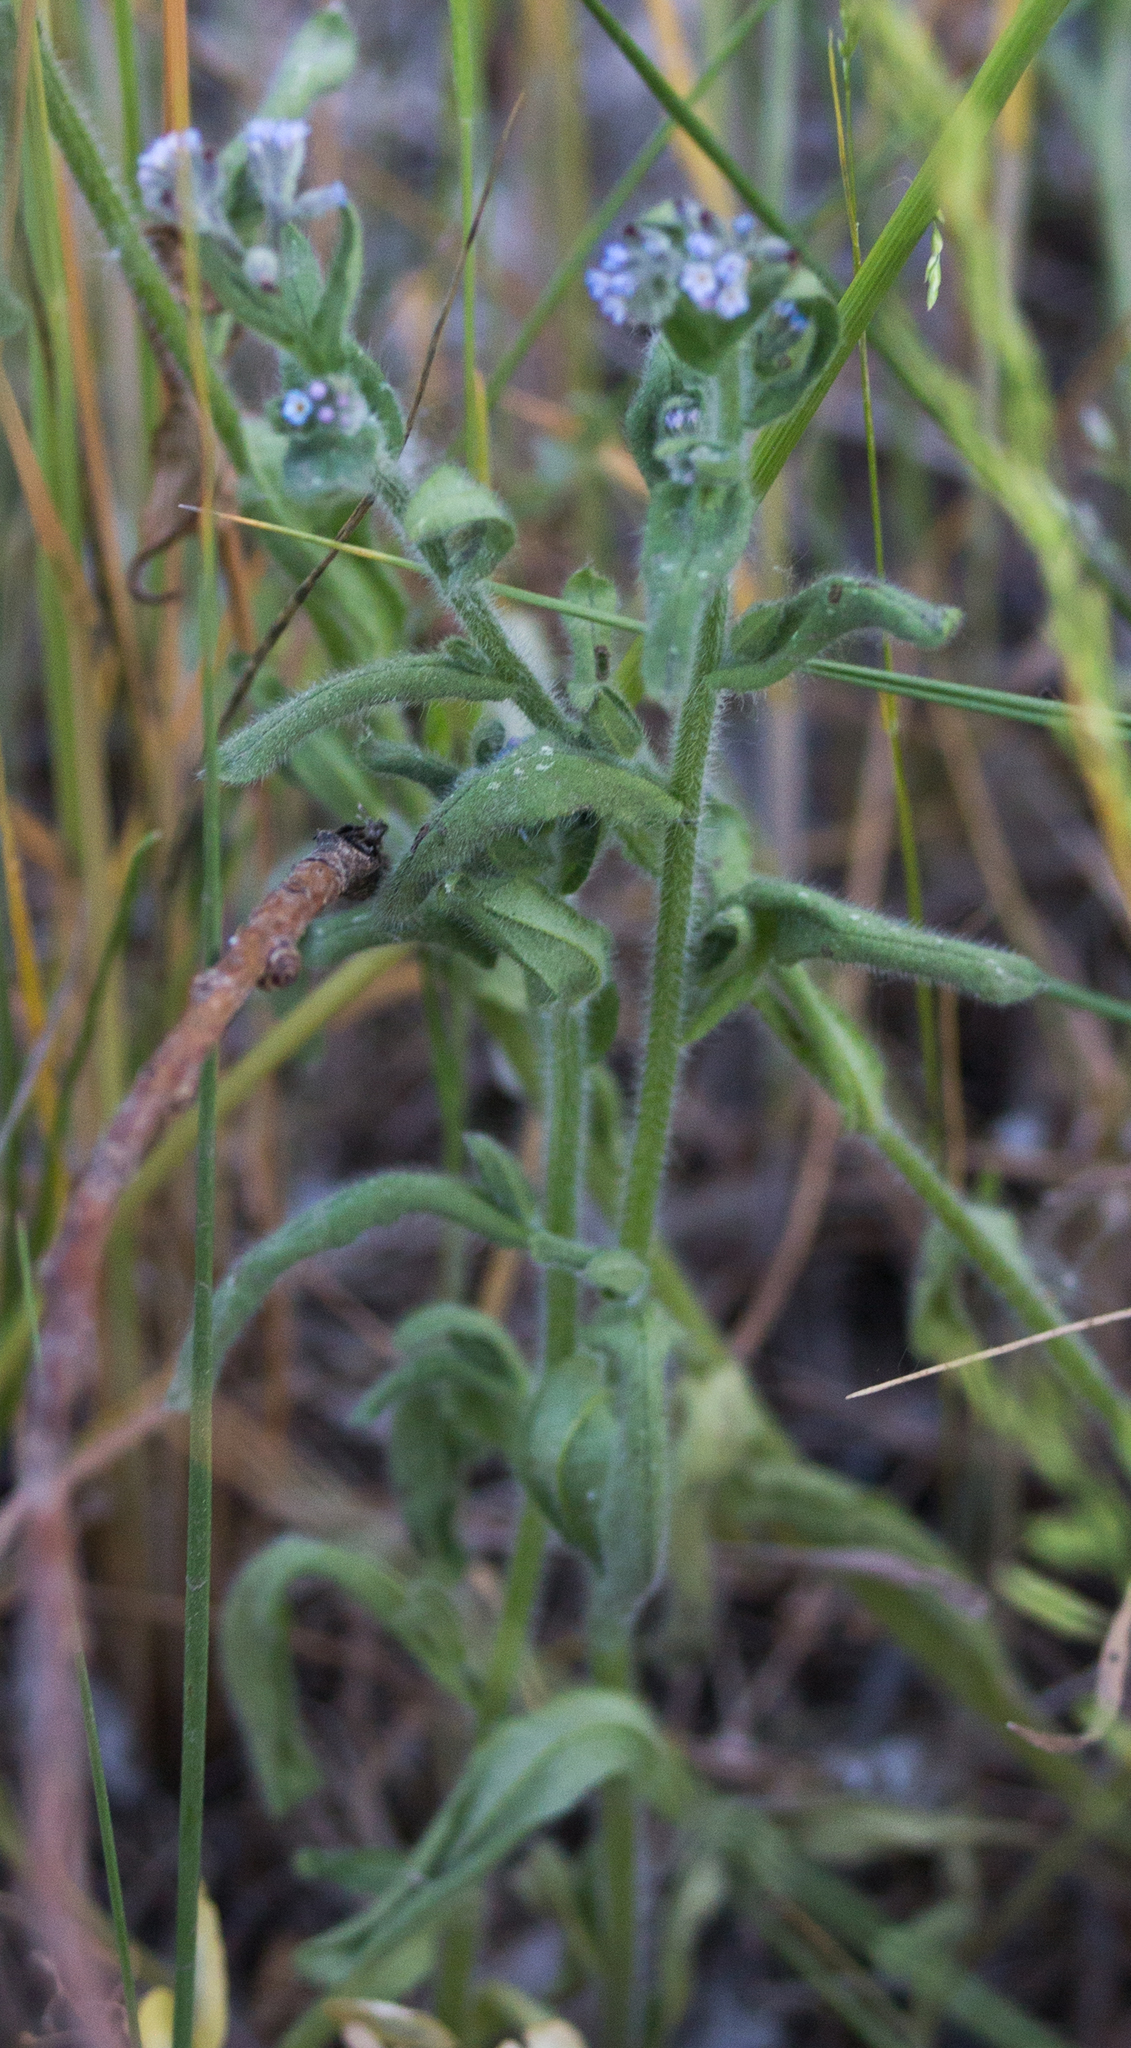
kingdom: Plantae
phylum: Tracheophyta
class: Magnoliopsida
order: Boraginales
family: Boraginaceae
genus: Myosotis
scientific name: Myosotis arvensis
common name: Field forget-me-not
